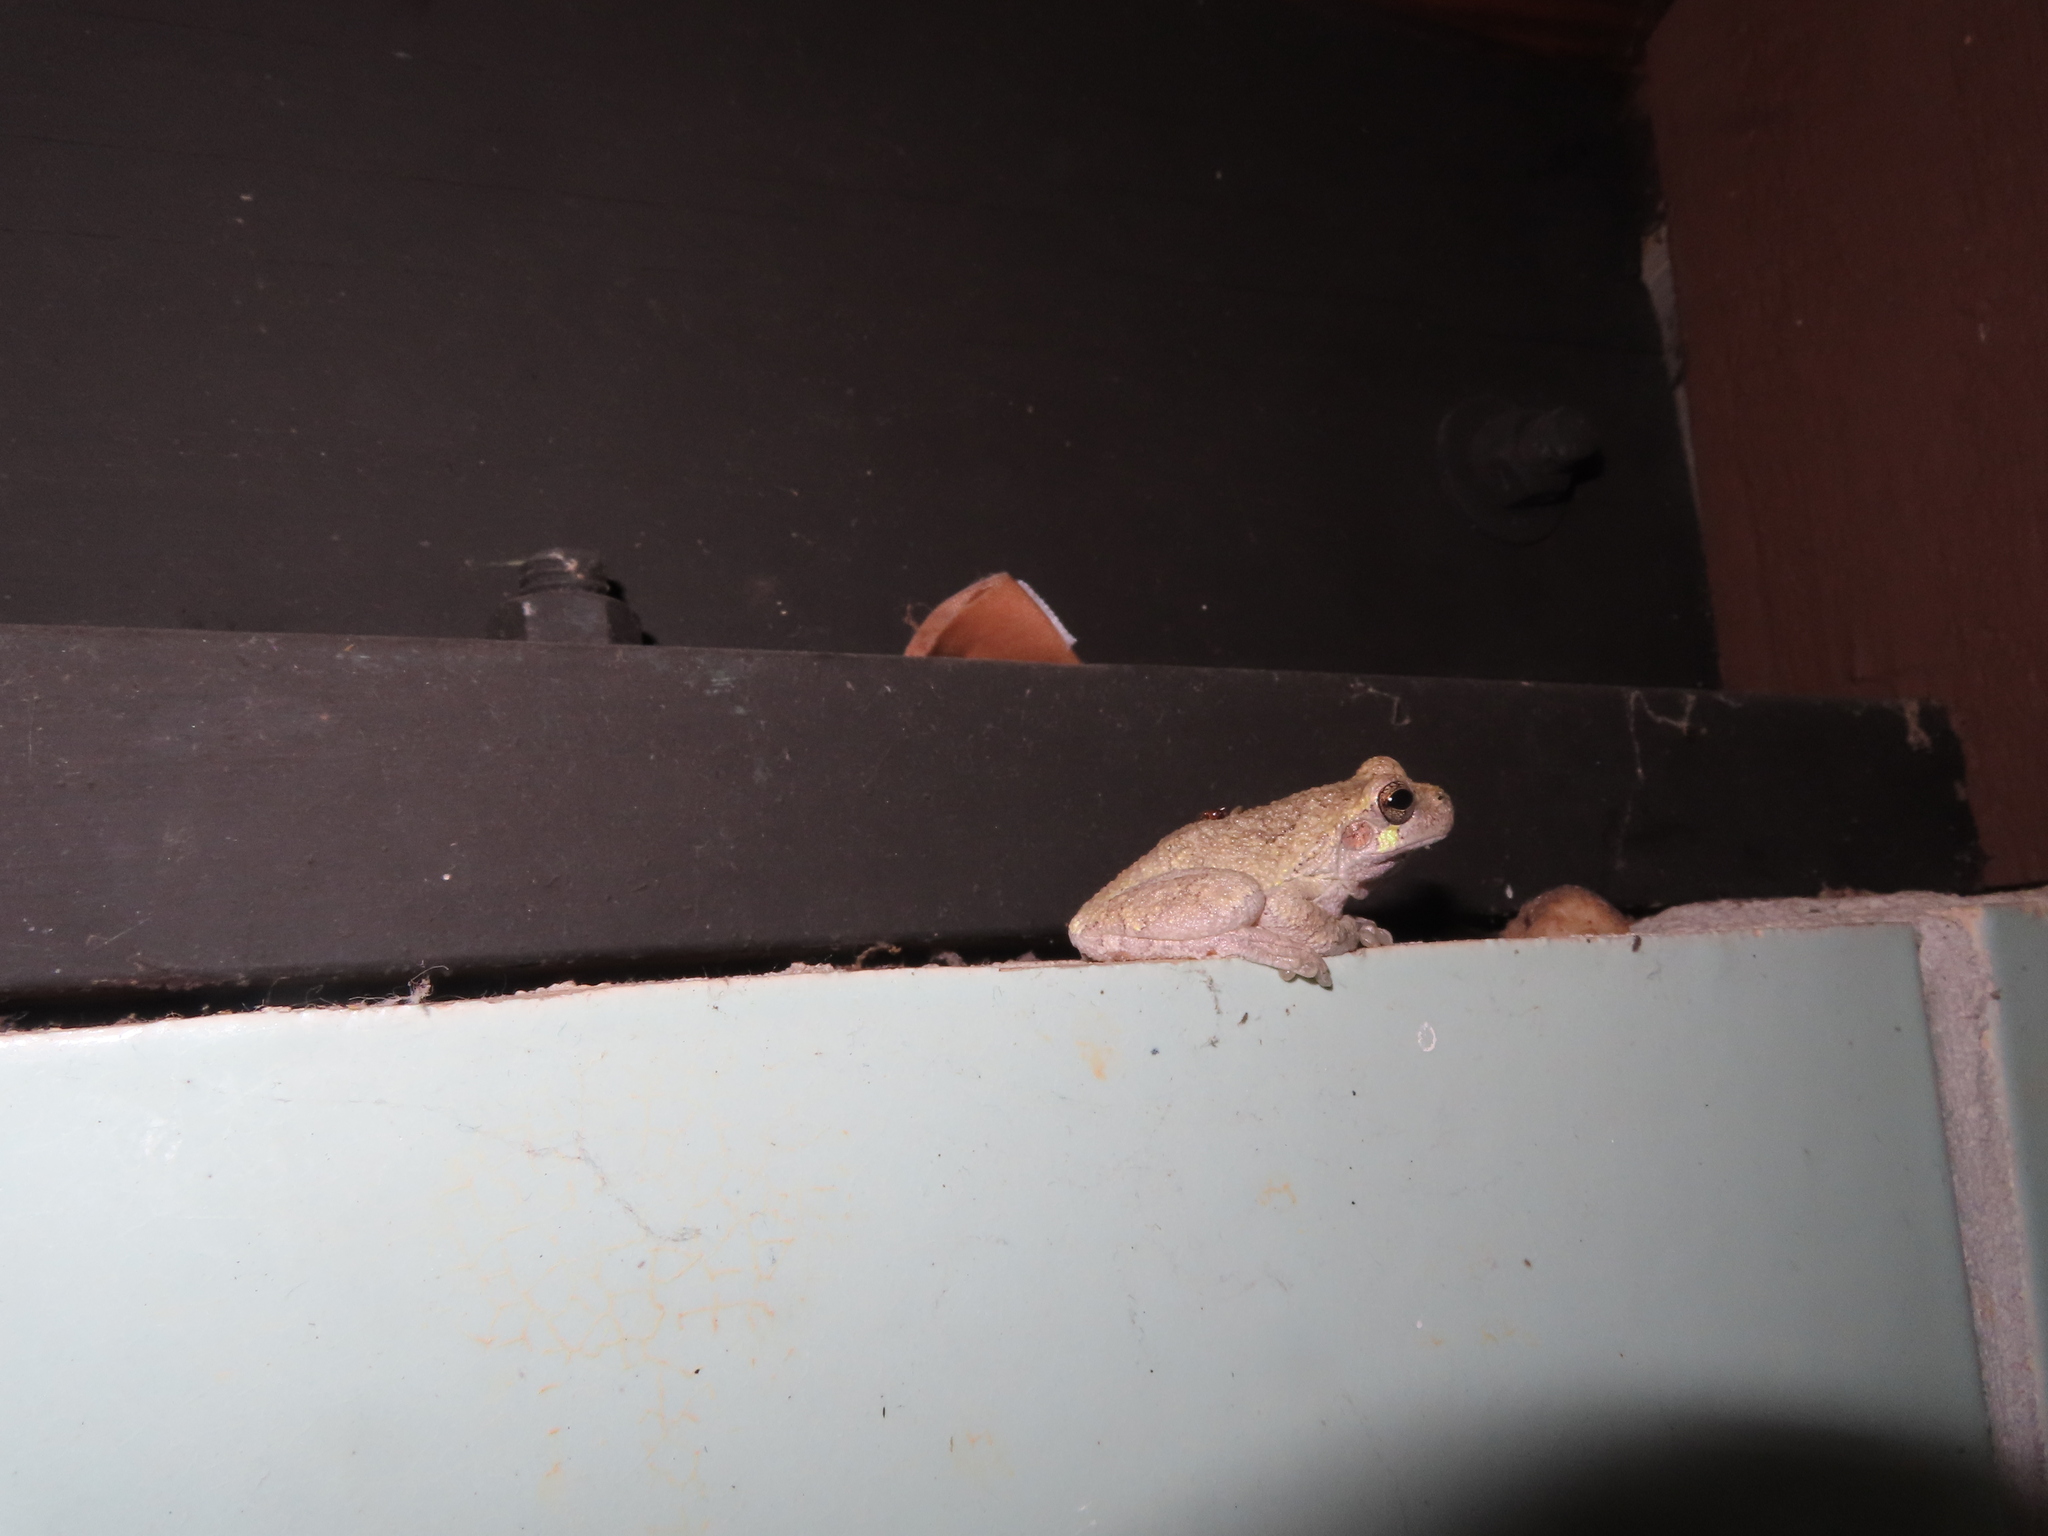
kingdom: Animalia
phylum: Chordata
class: Amphibia
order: Anura
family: Hylidae
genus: Dryophytes
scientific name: Dryophytes chrysoscelis
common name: Cope's gray treefrog
